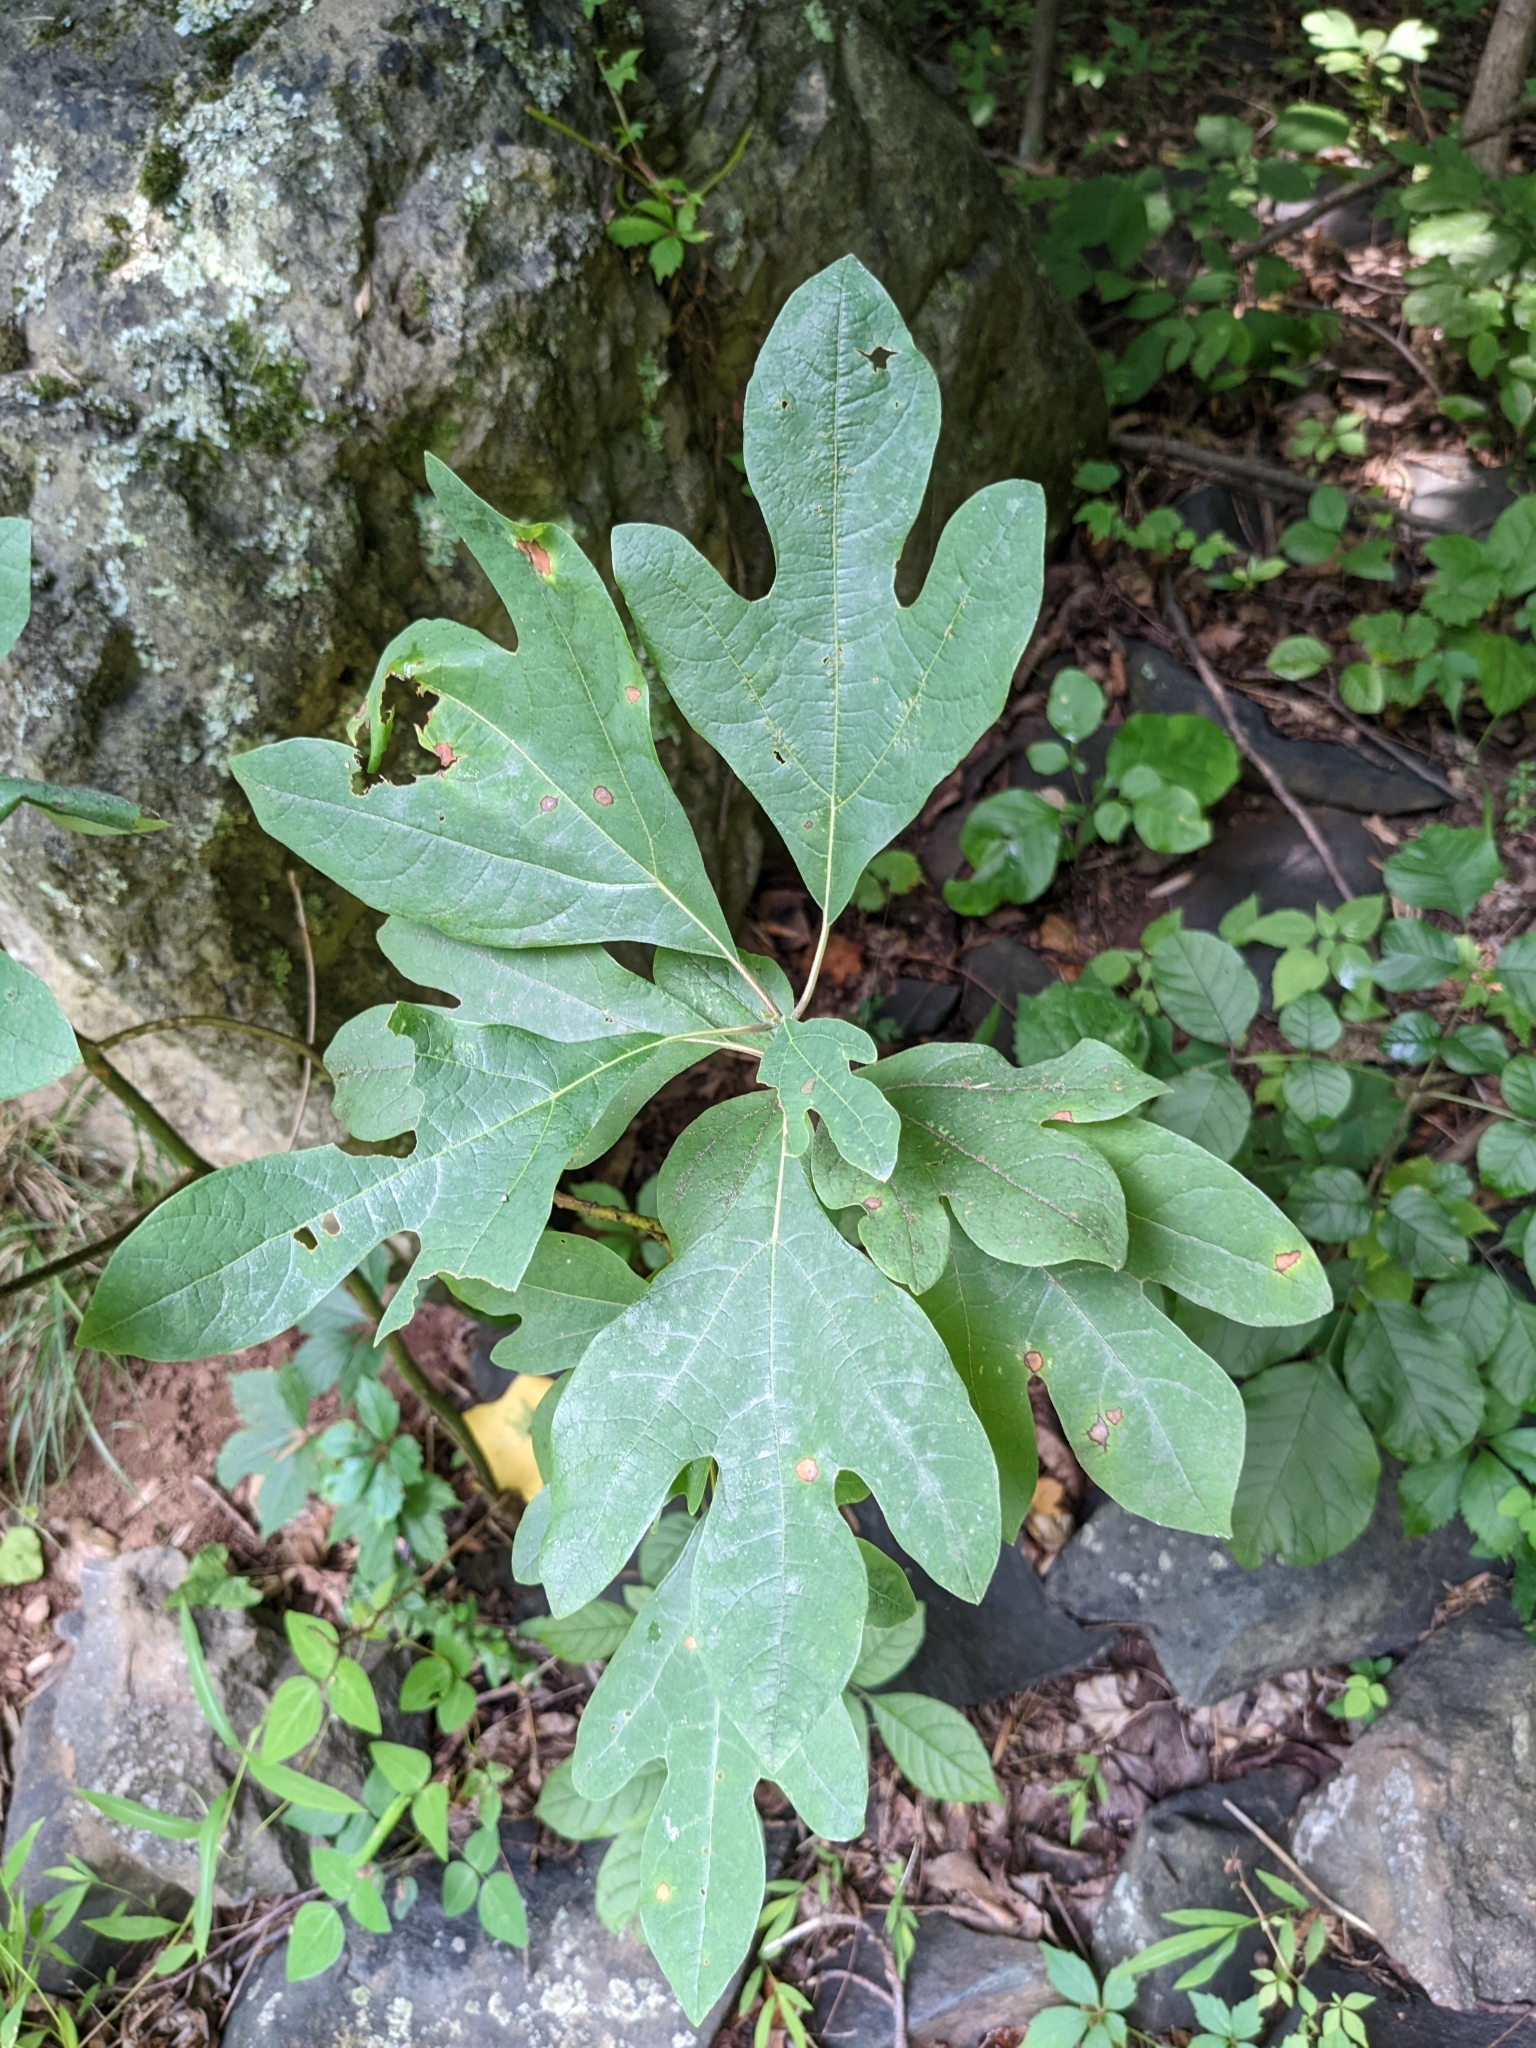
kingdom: Plantae
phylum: Tracheophyta
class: Magnoliopsida
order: Laurales
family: Lauraceae
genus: Sassafras
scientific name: Sassafras albidum
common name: Sassafras
